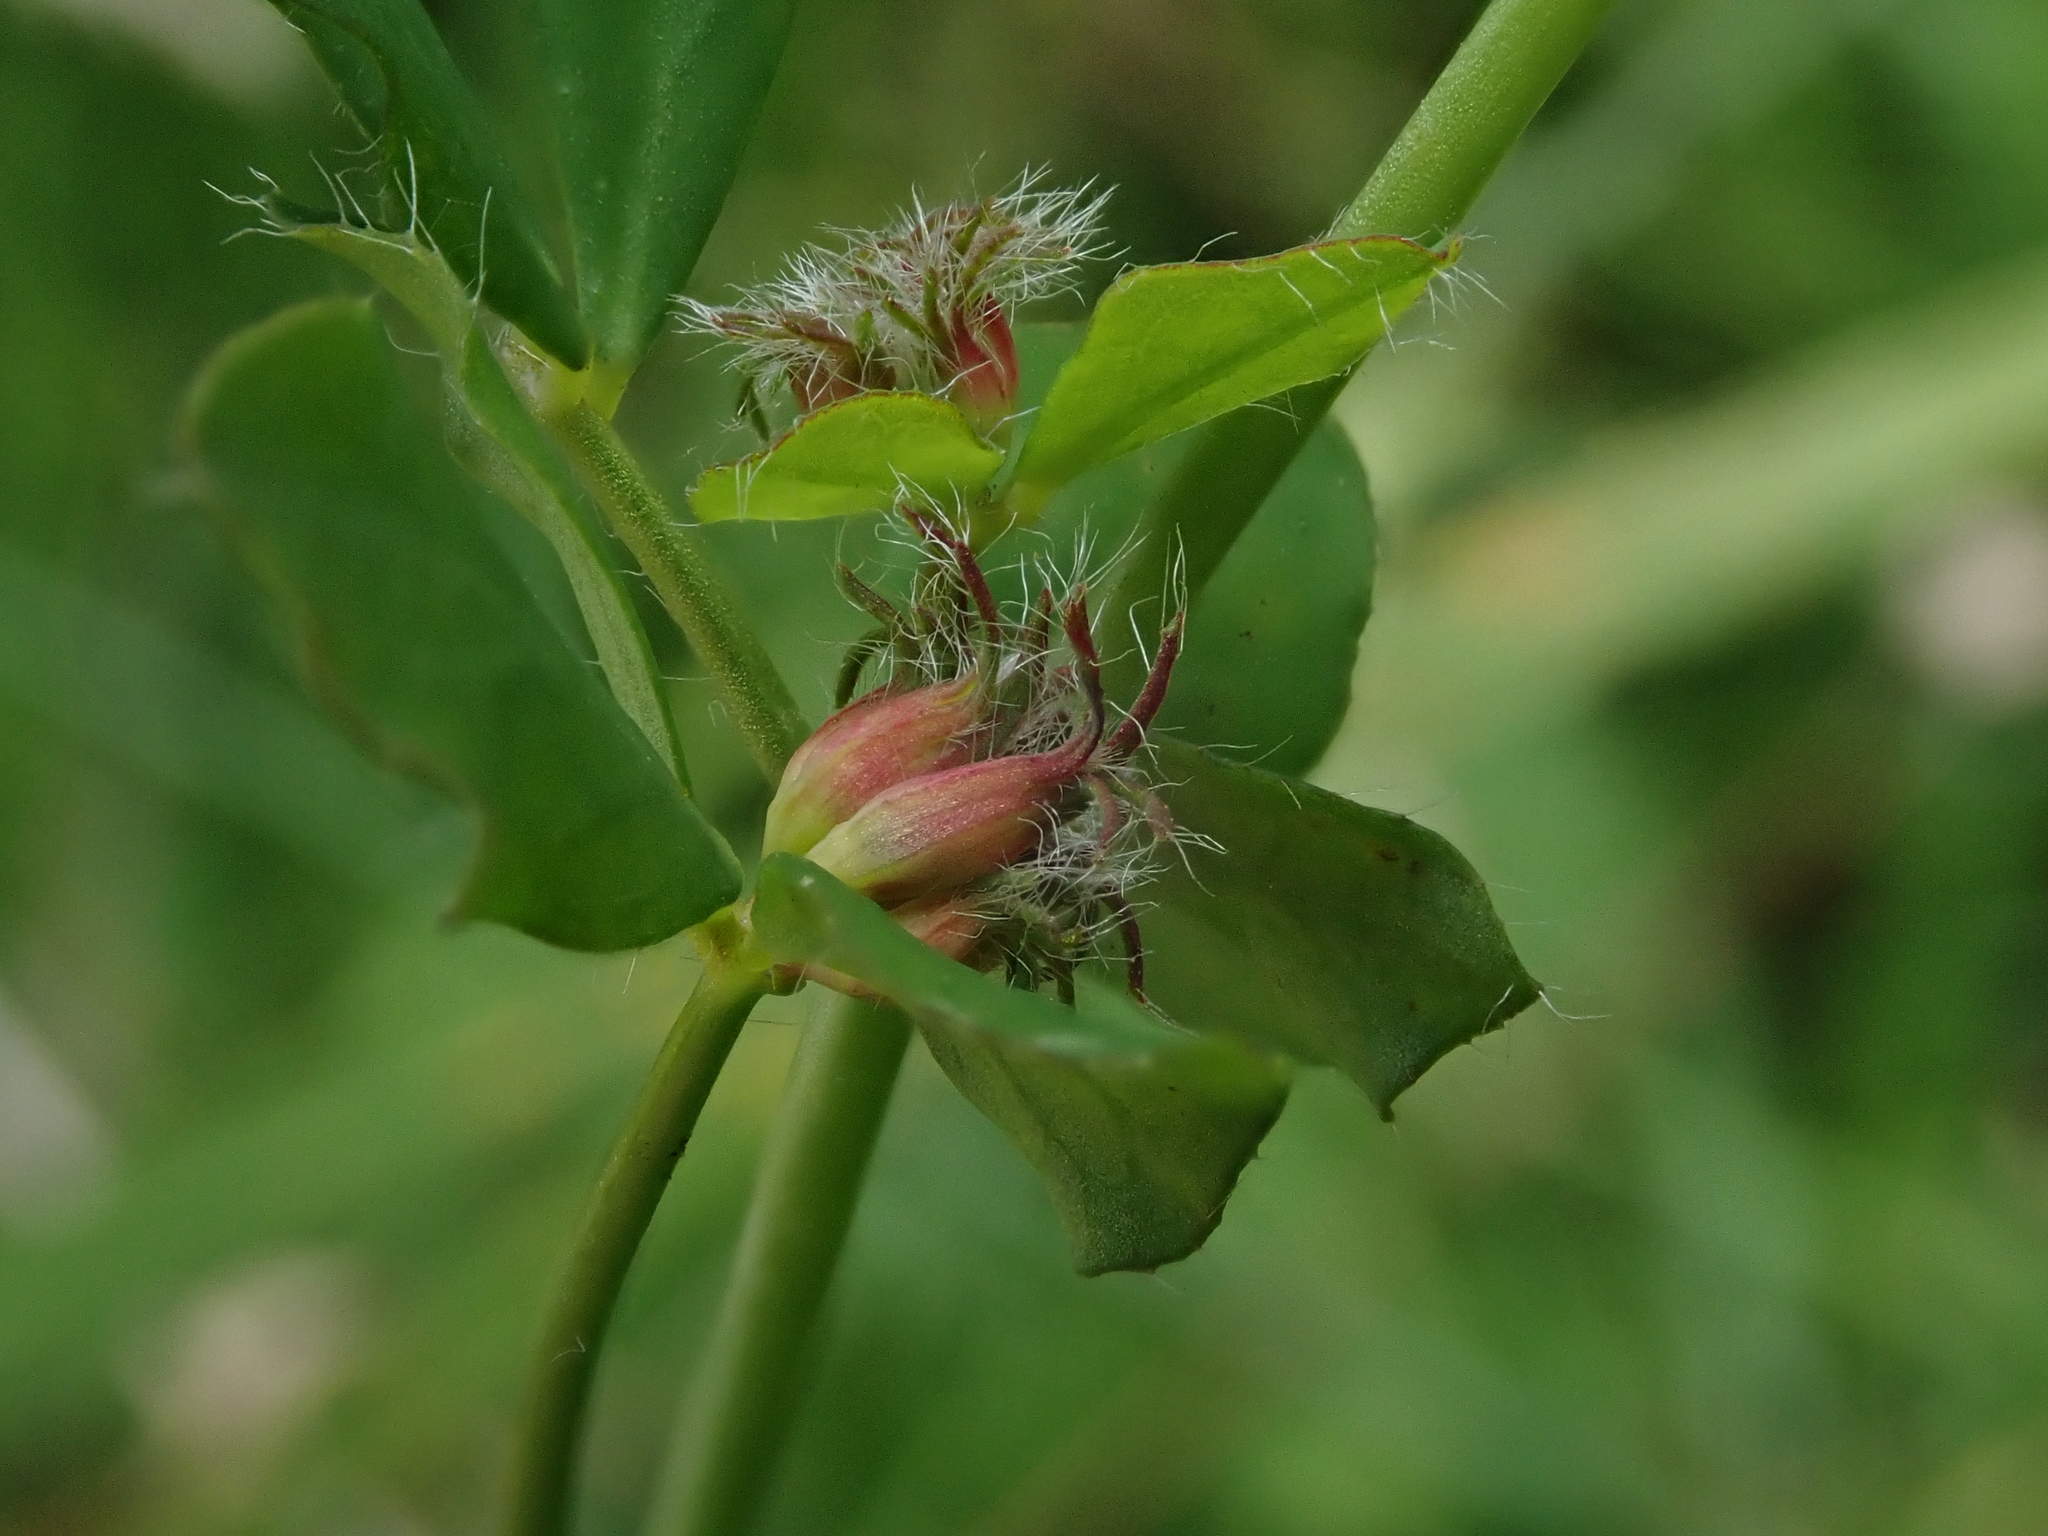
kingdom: Plantae
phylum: Tracheophyta
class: Magnoliopsida
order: Fabales
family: Fabaceae
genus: Lotus
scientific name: Lotus pedunculatus
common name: Greater birdsfoot-trefoil
